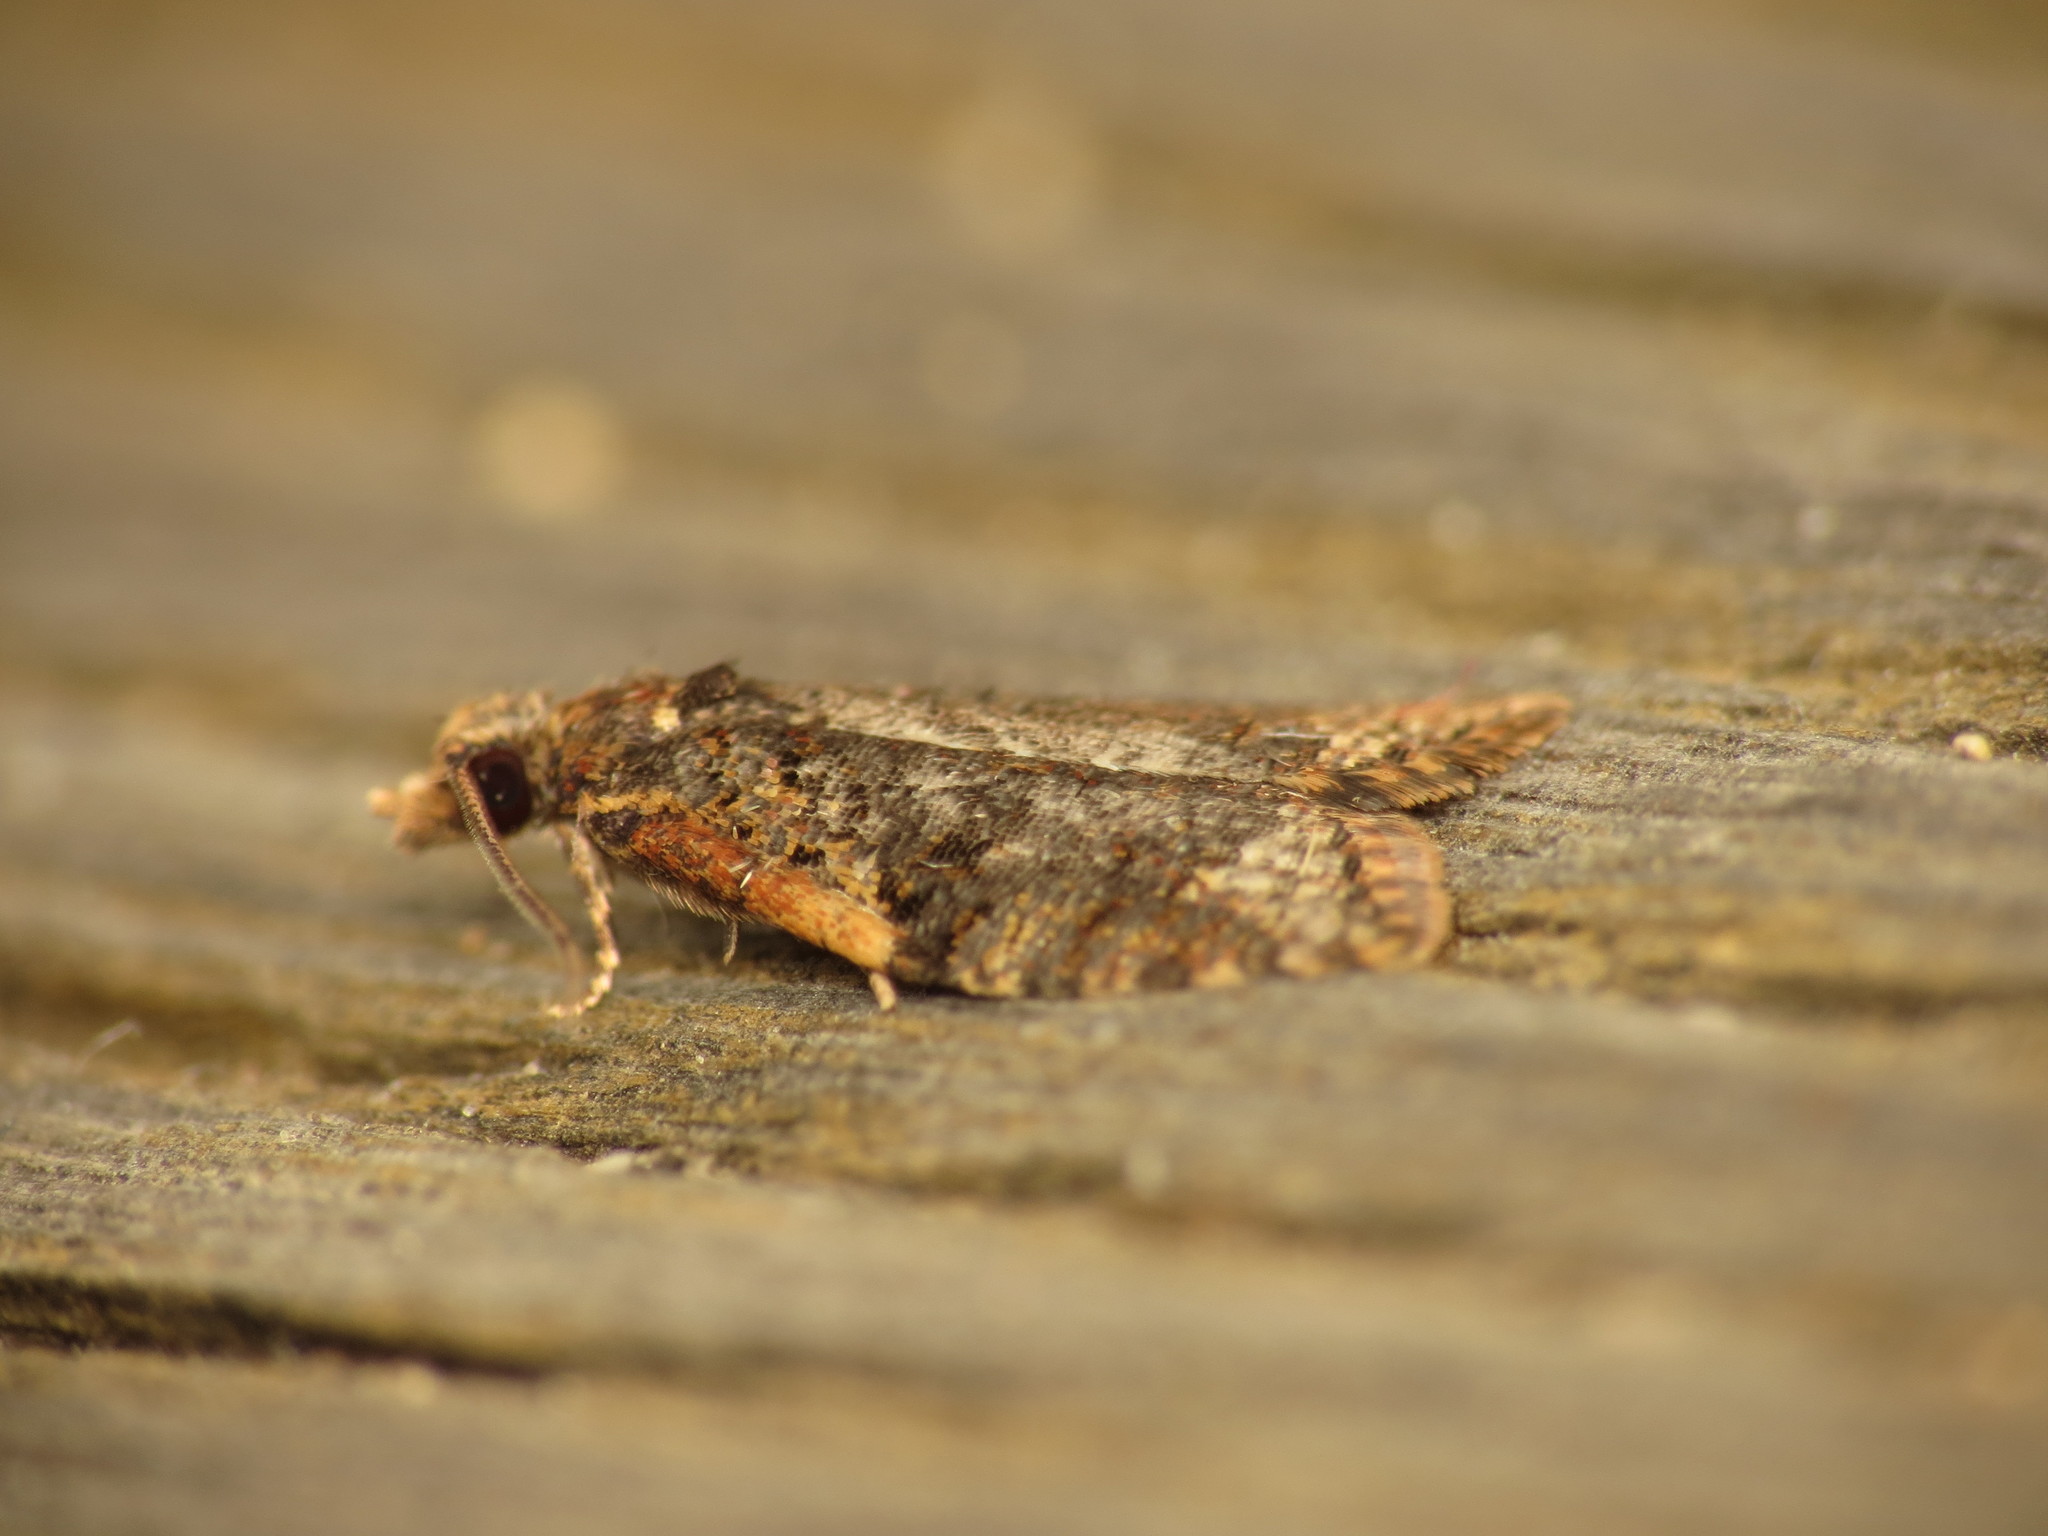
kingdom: Animalia
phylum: Arthropoda
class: Insecta
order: Lepidoptera
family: Tortricidae
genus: Capua
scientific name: Capua intractana
